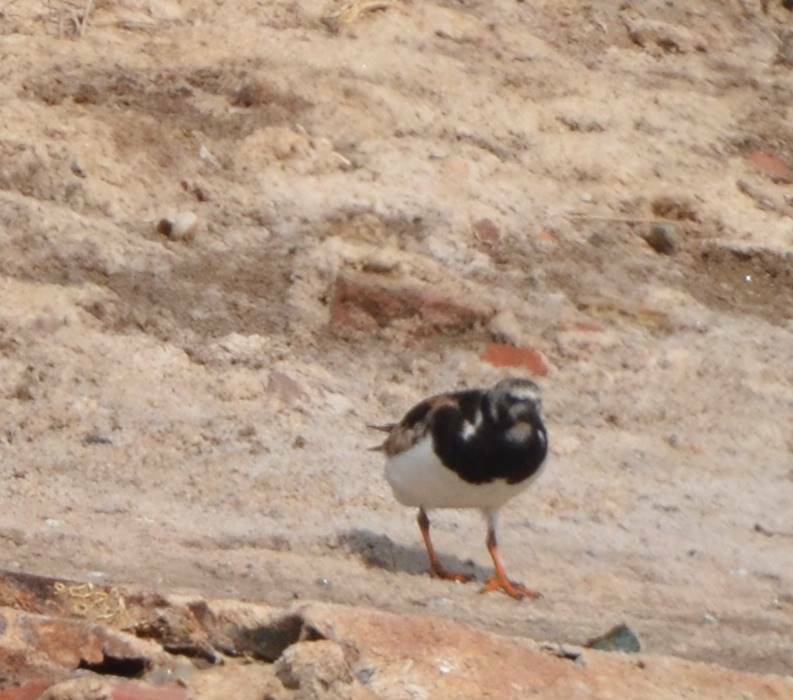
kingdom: Animalia
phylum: Chordata
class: Aves
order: Charadriiformes
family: Scolopacidae
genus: Arenaria
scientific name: Arenaria interpres
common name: Ruddy turnstone
